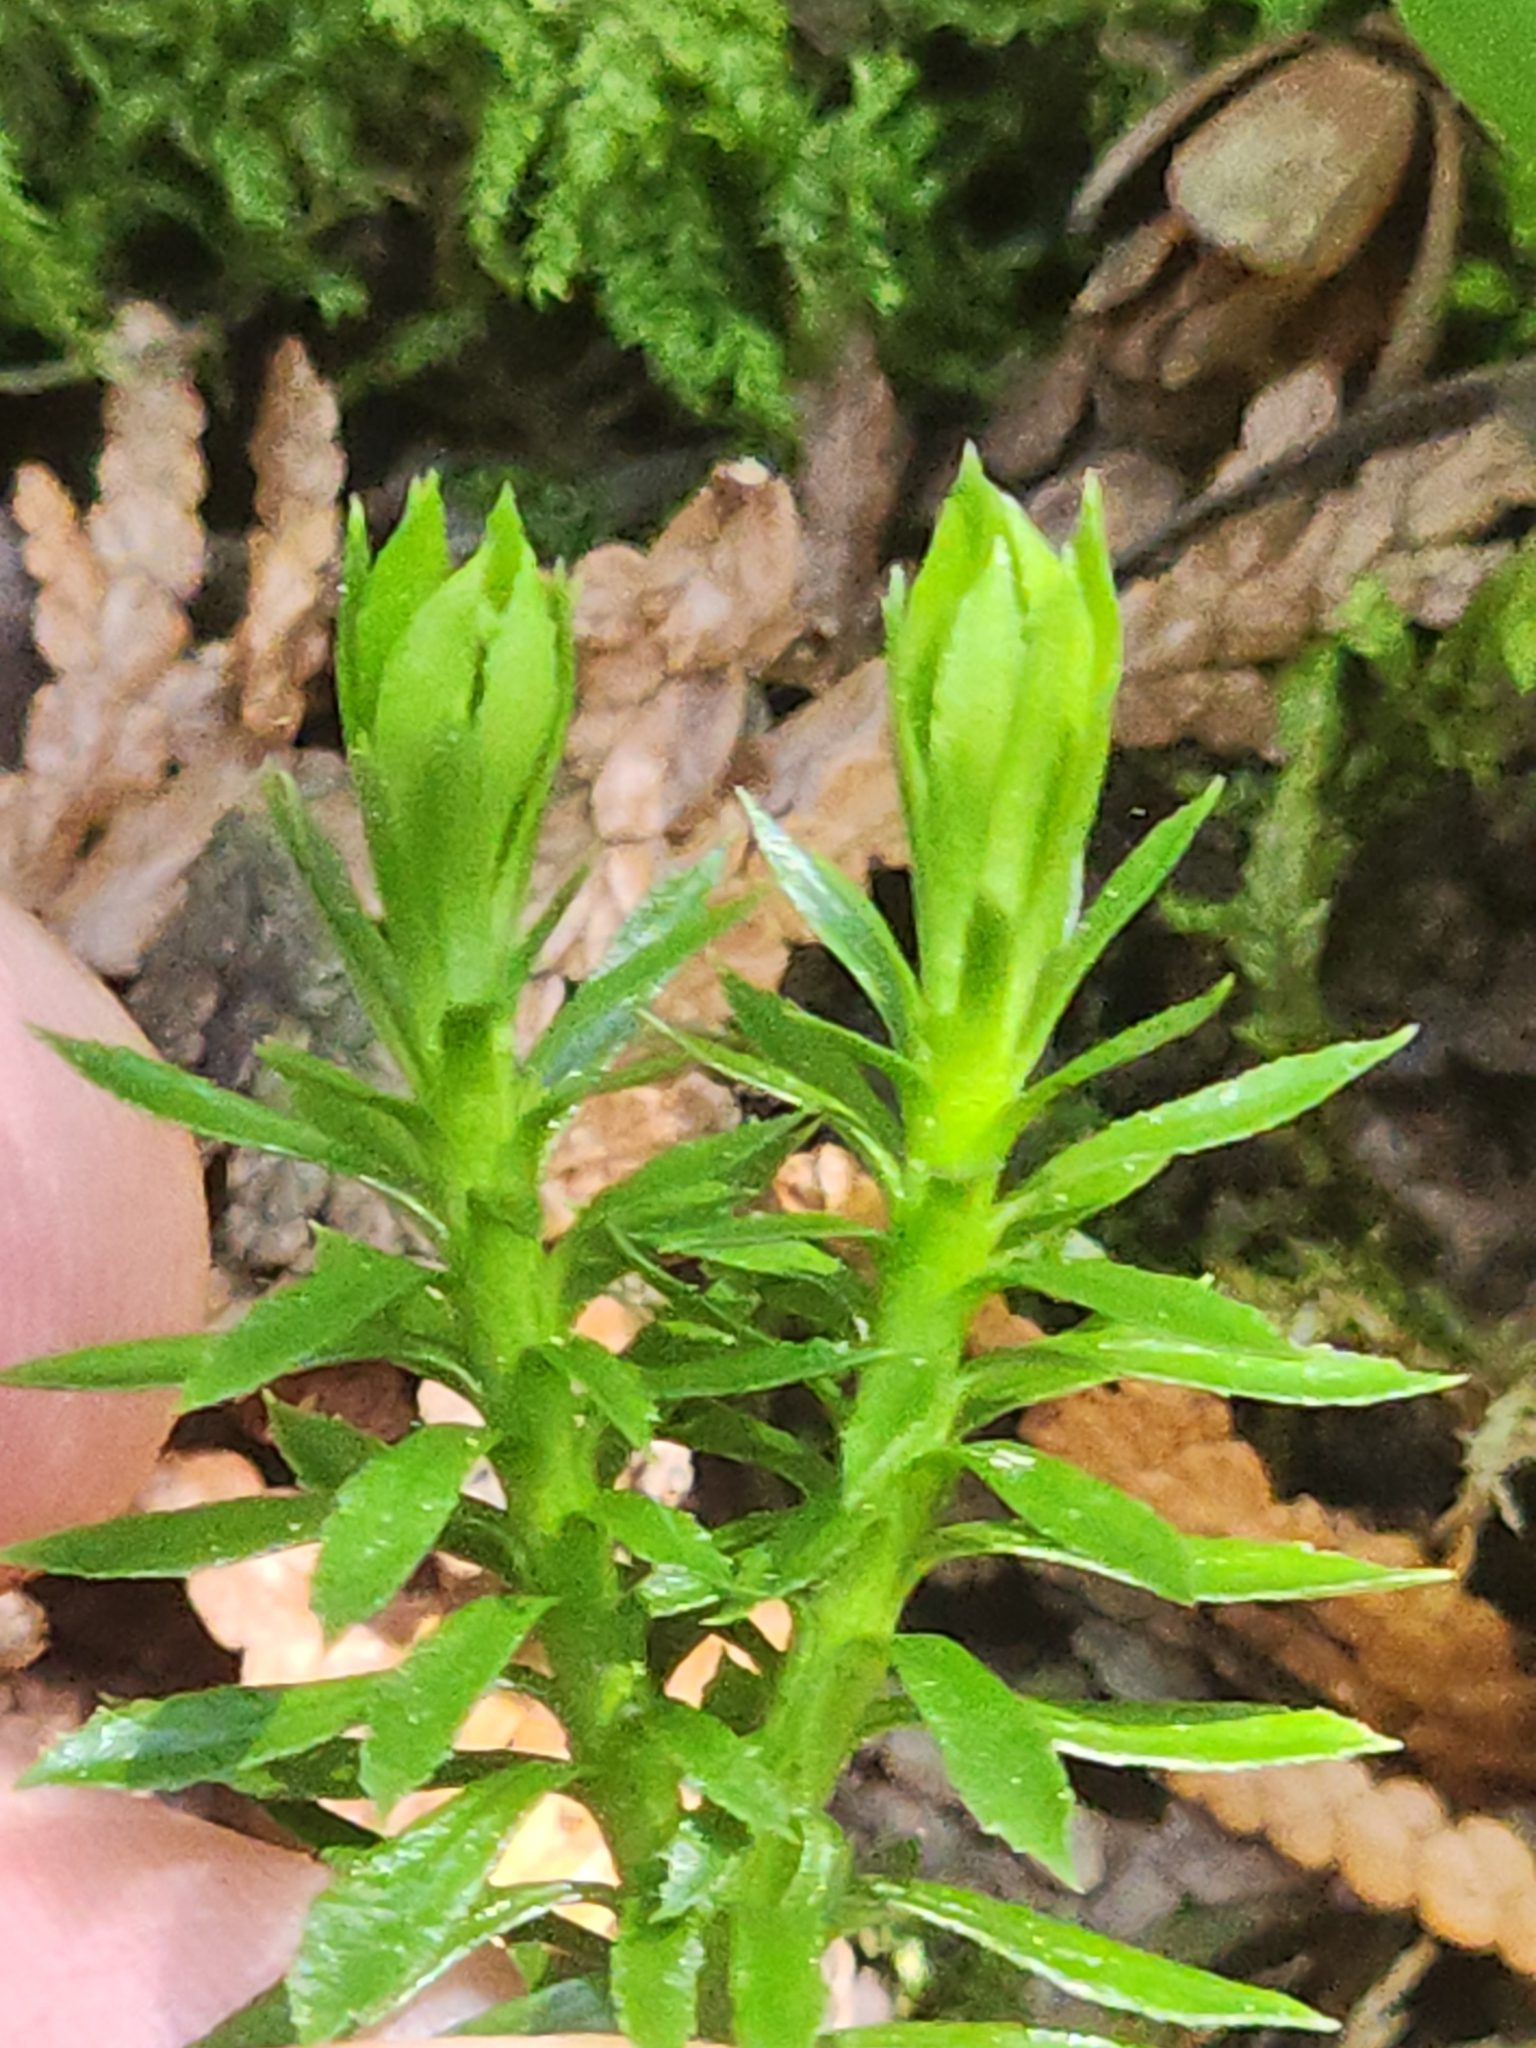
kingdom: Plantae
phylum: Tracheophyta
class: Lycopodiopsida
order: Lycopodiales
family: Lycopodiaceae
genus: Huperzia
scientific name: Huperzia lucidula
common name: Shining clubmoss
